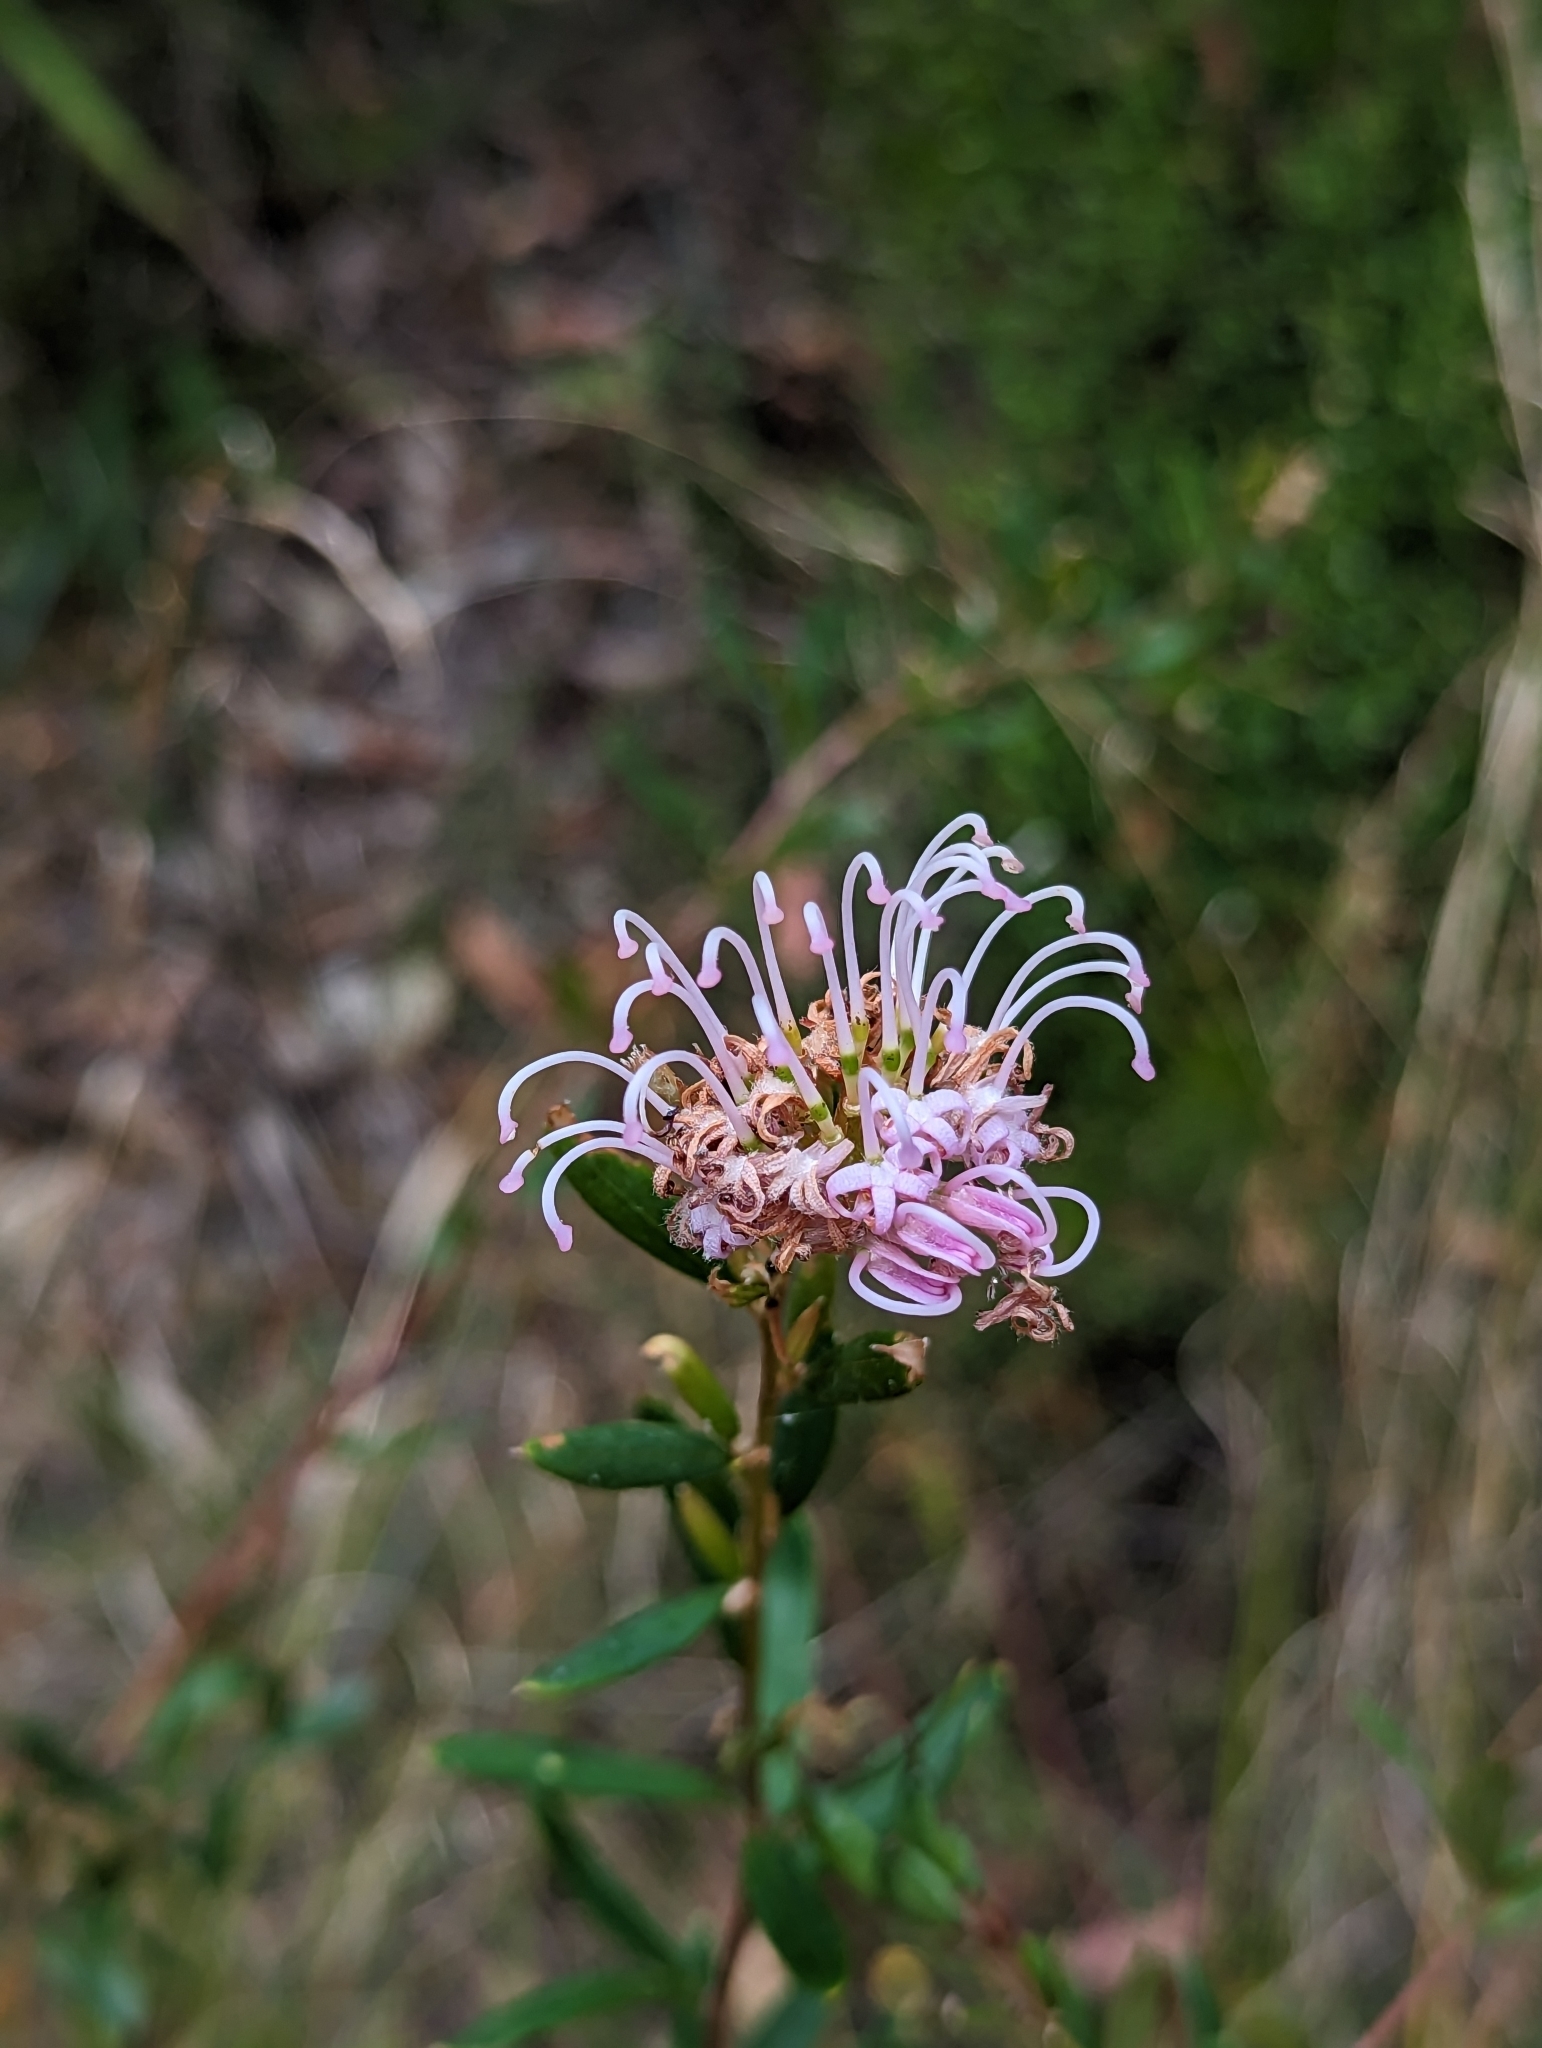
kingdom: Plantae
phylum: Tracheophyta
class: Magnoliopsida
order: Proteales
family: Proteaceae
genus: Grevillea
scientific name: Grevillea sericea
